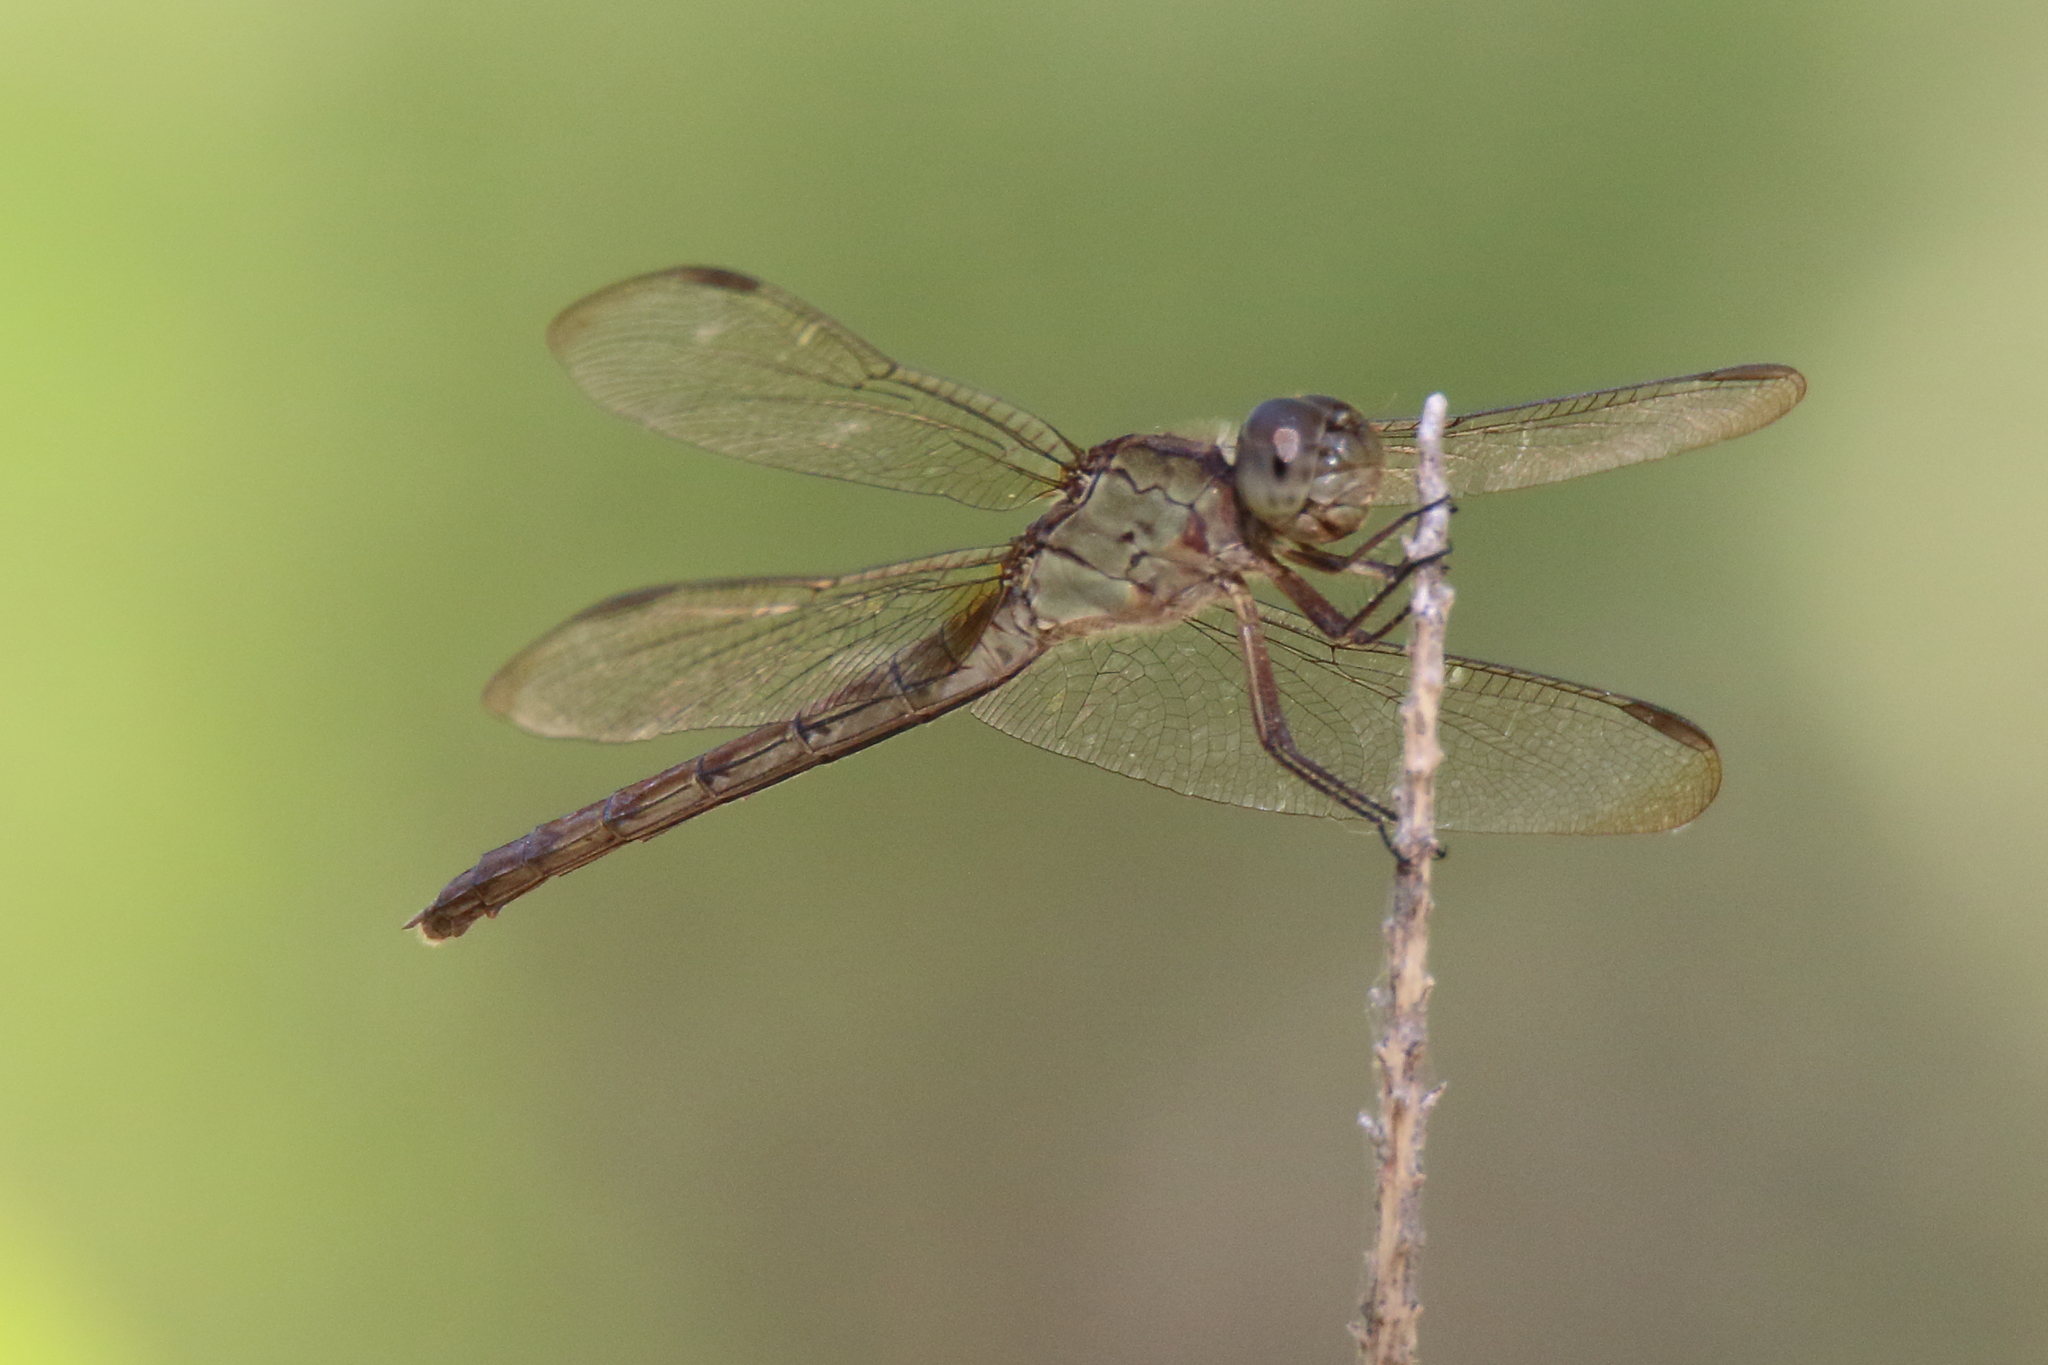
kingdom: Animalia
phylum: Arthropoda
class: Insecta
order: Odonata
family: Libellulidae
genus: Erythrodiplax
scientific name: Erythrodiplax umbrata
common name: Band-winged dragonlet
